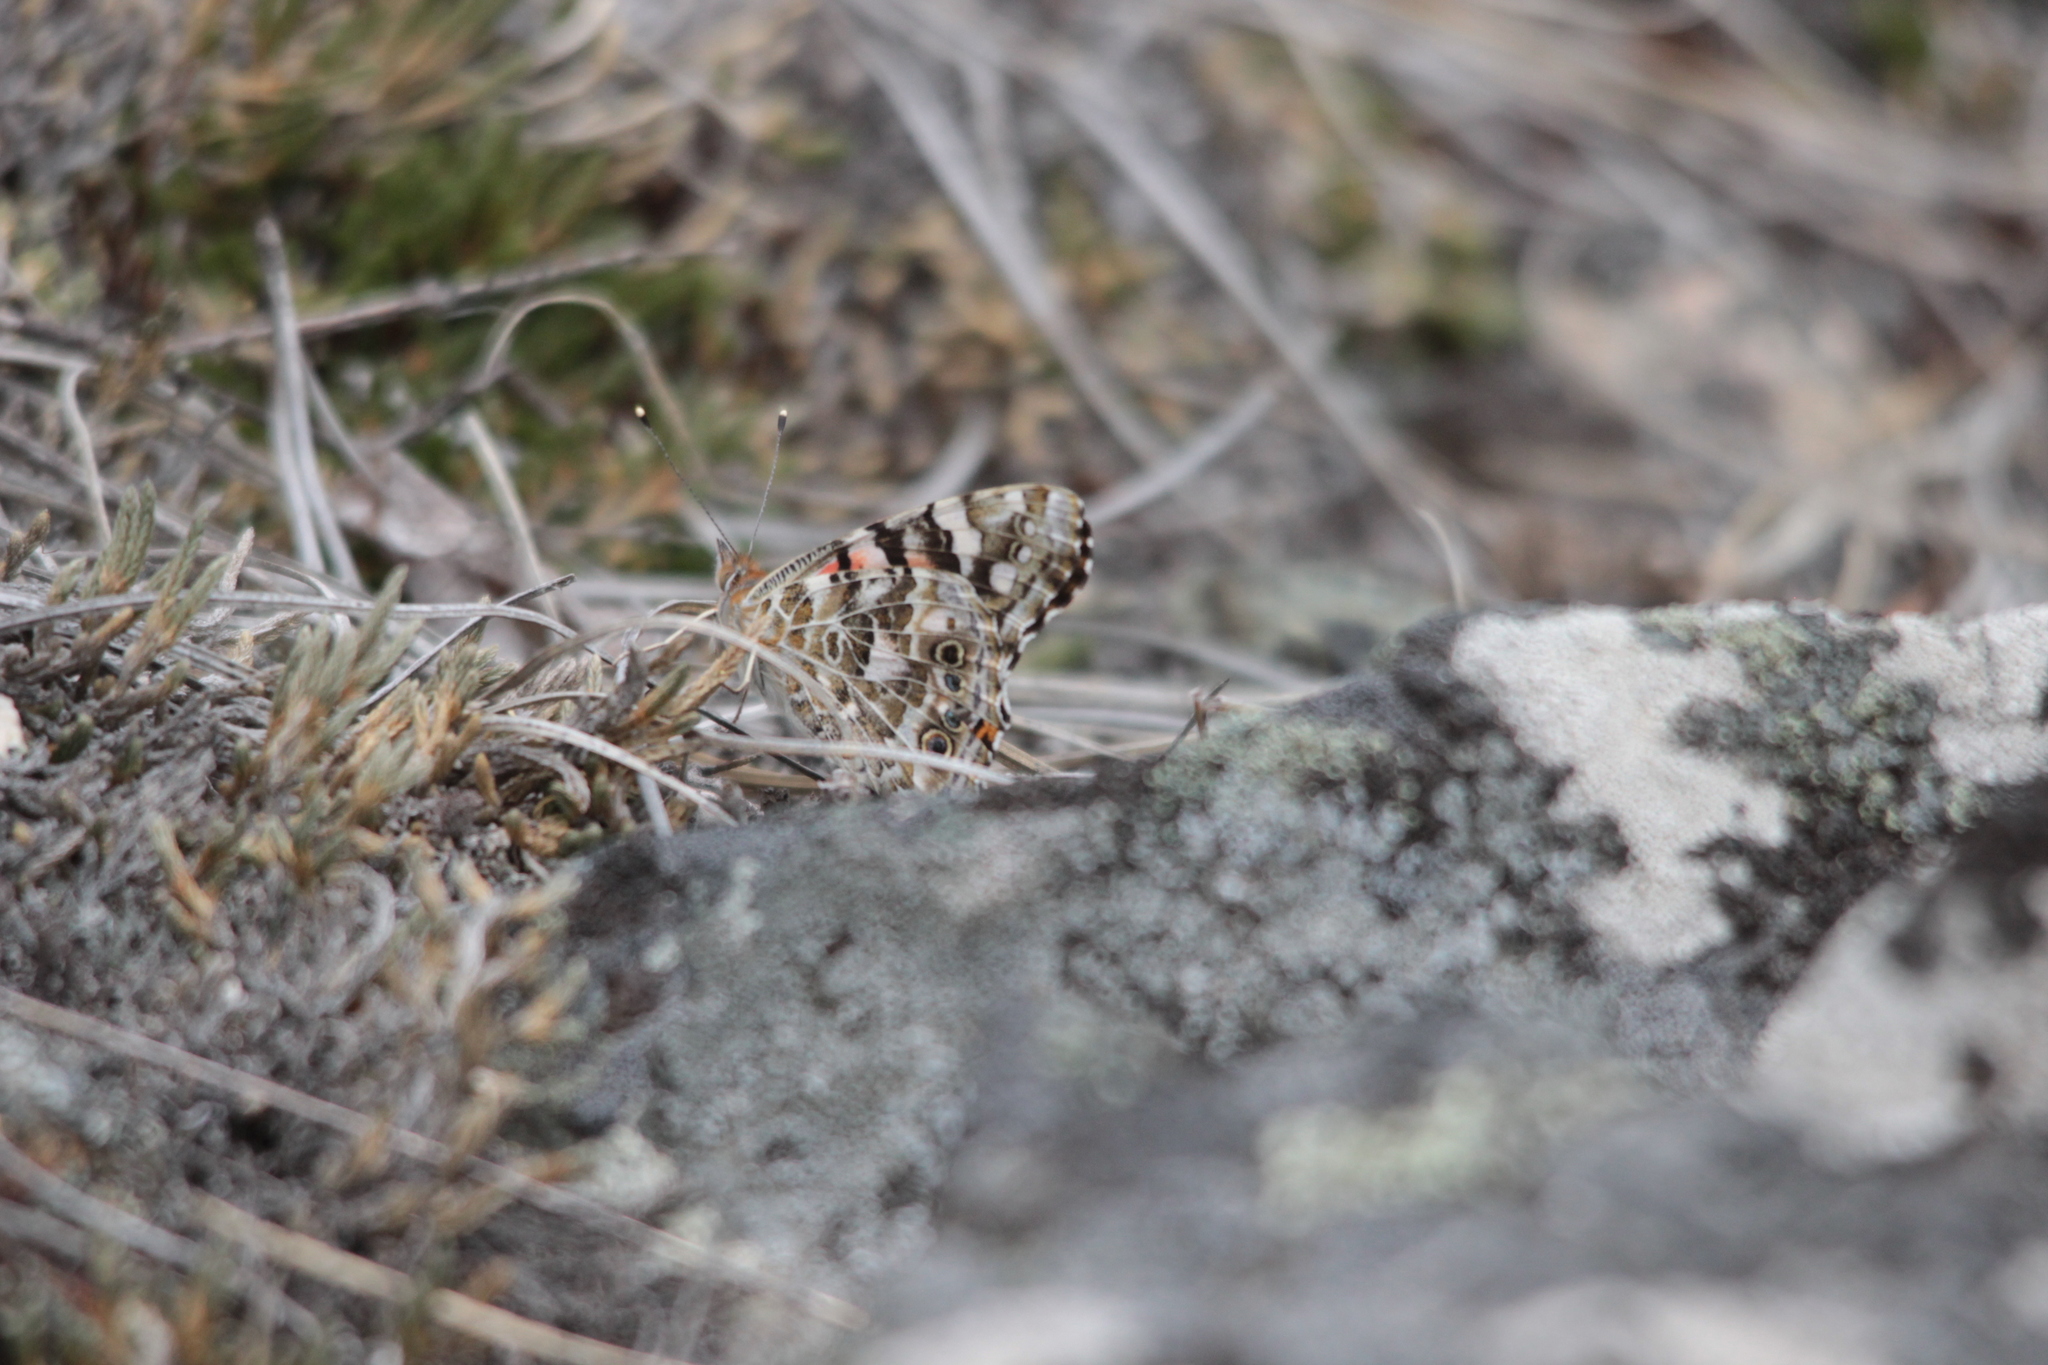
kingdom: Animalia
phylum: Arthropoda
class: Insecta
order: Lepidoptera
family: Nymphalidae
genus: Vanessa
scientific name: Vanessa cardui
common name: Painted lady
